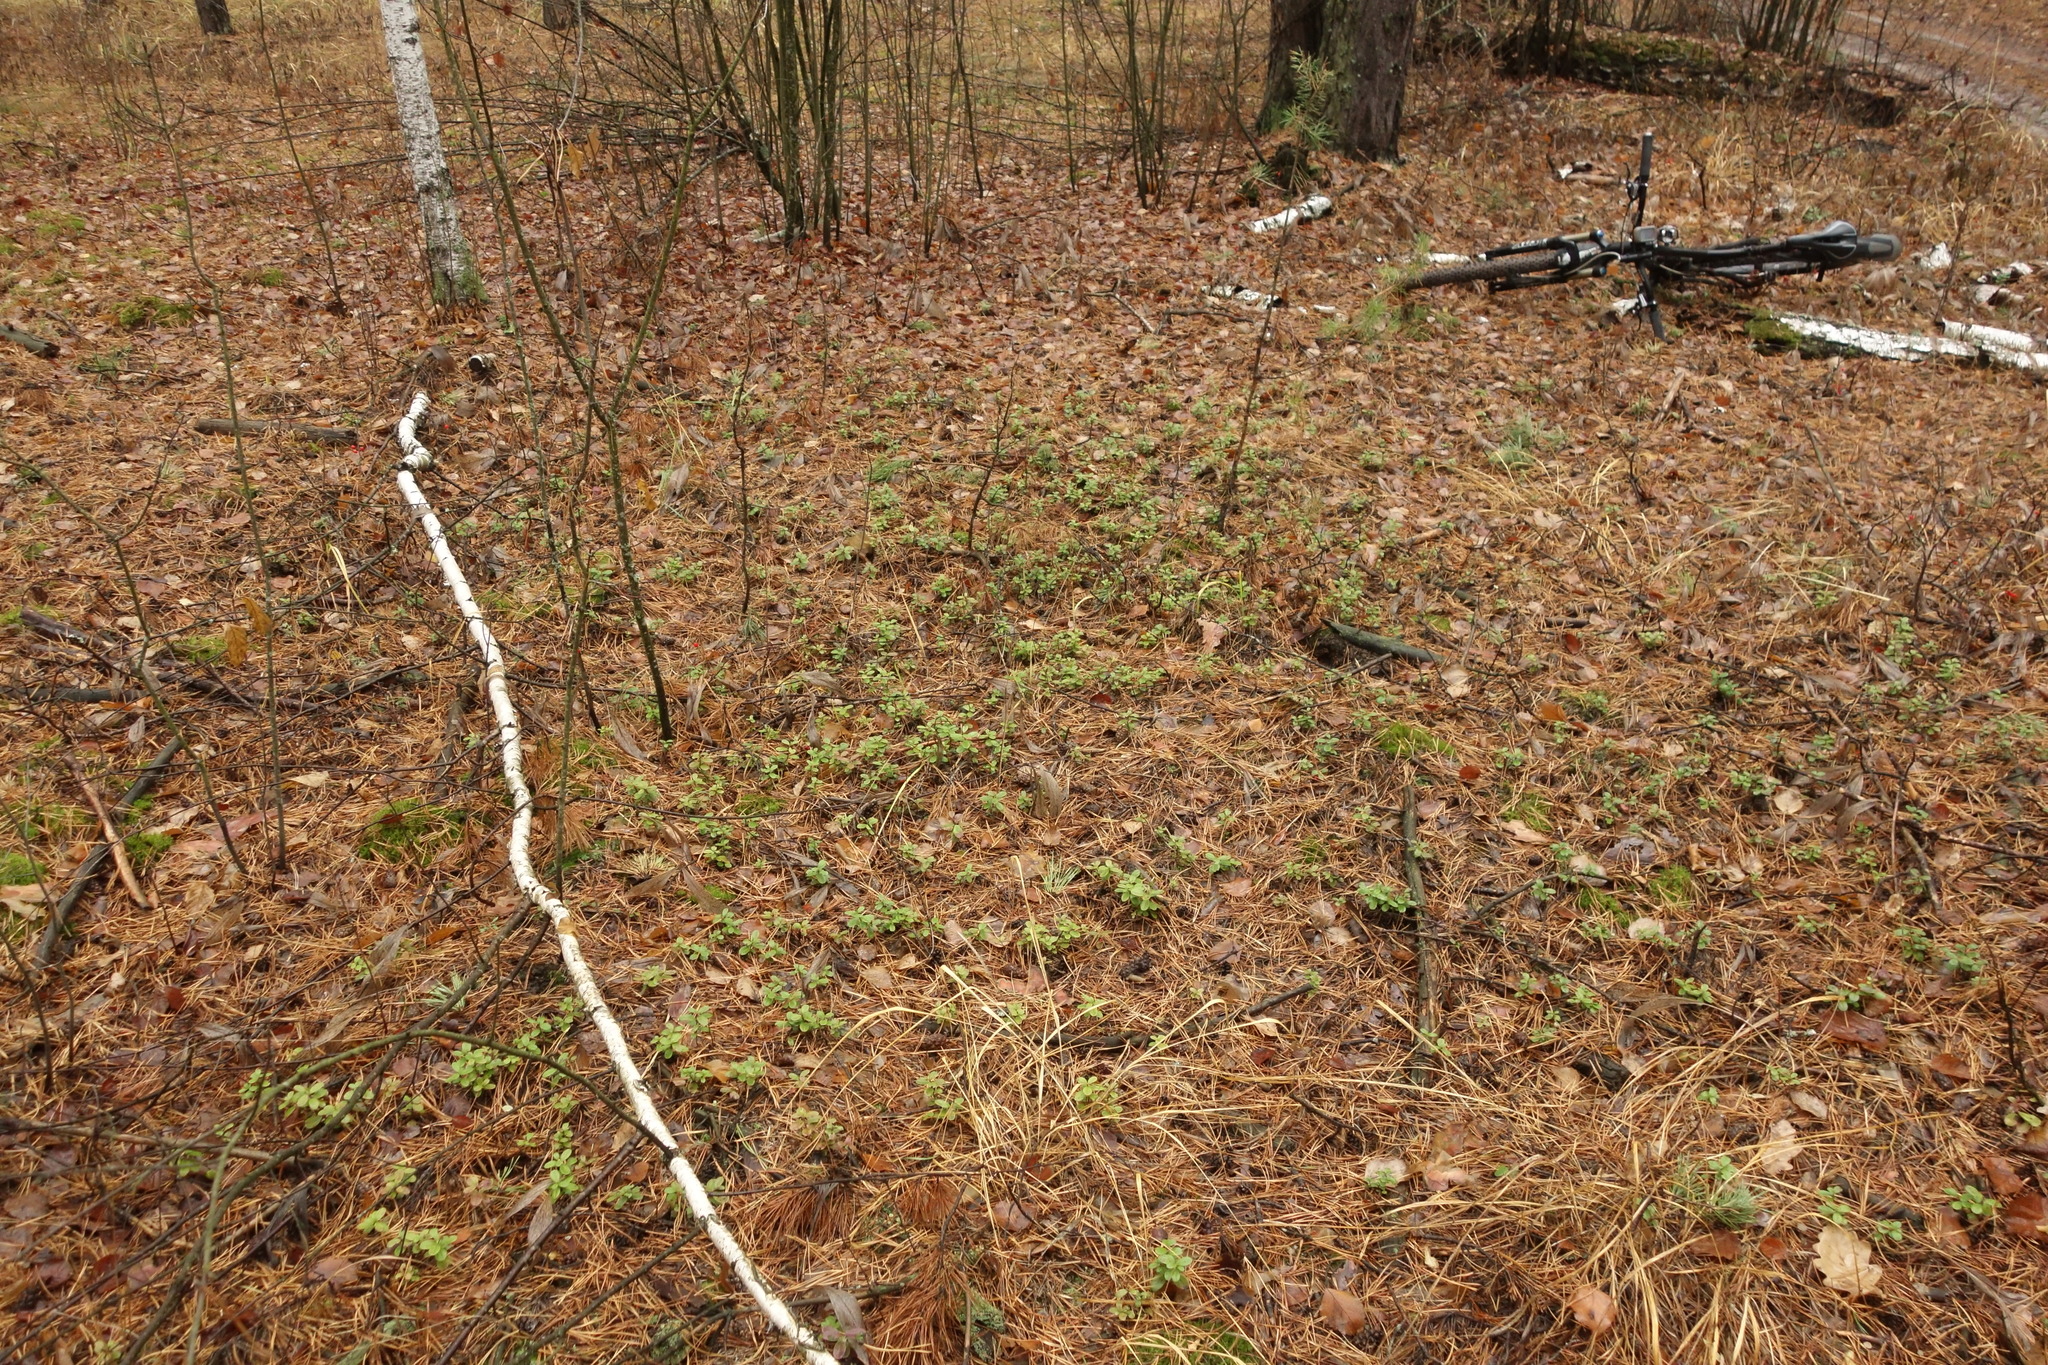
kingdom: Plantae
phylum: Tracheophyta
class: Magnoliopsida
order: Ericales
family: Ericaceae
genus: Vaccinium
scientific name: Vaccinium vitis-idaea
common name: Cowberry
